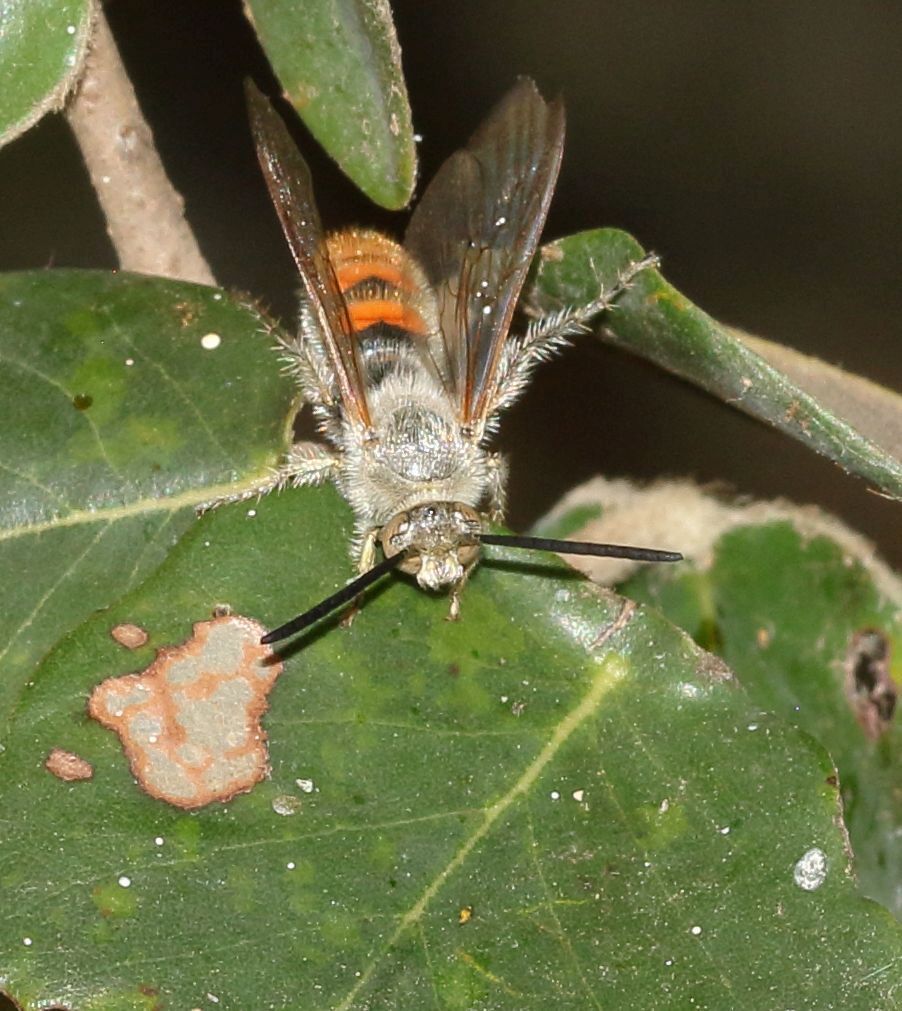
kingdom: Animalia
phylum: Arthropoda
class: Insecta
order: Hymenoptera
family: Scoliidae
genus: Campsomeriella
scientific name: Campsomeriella caelebs
